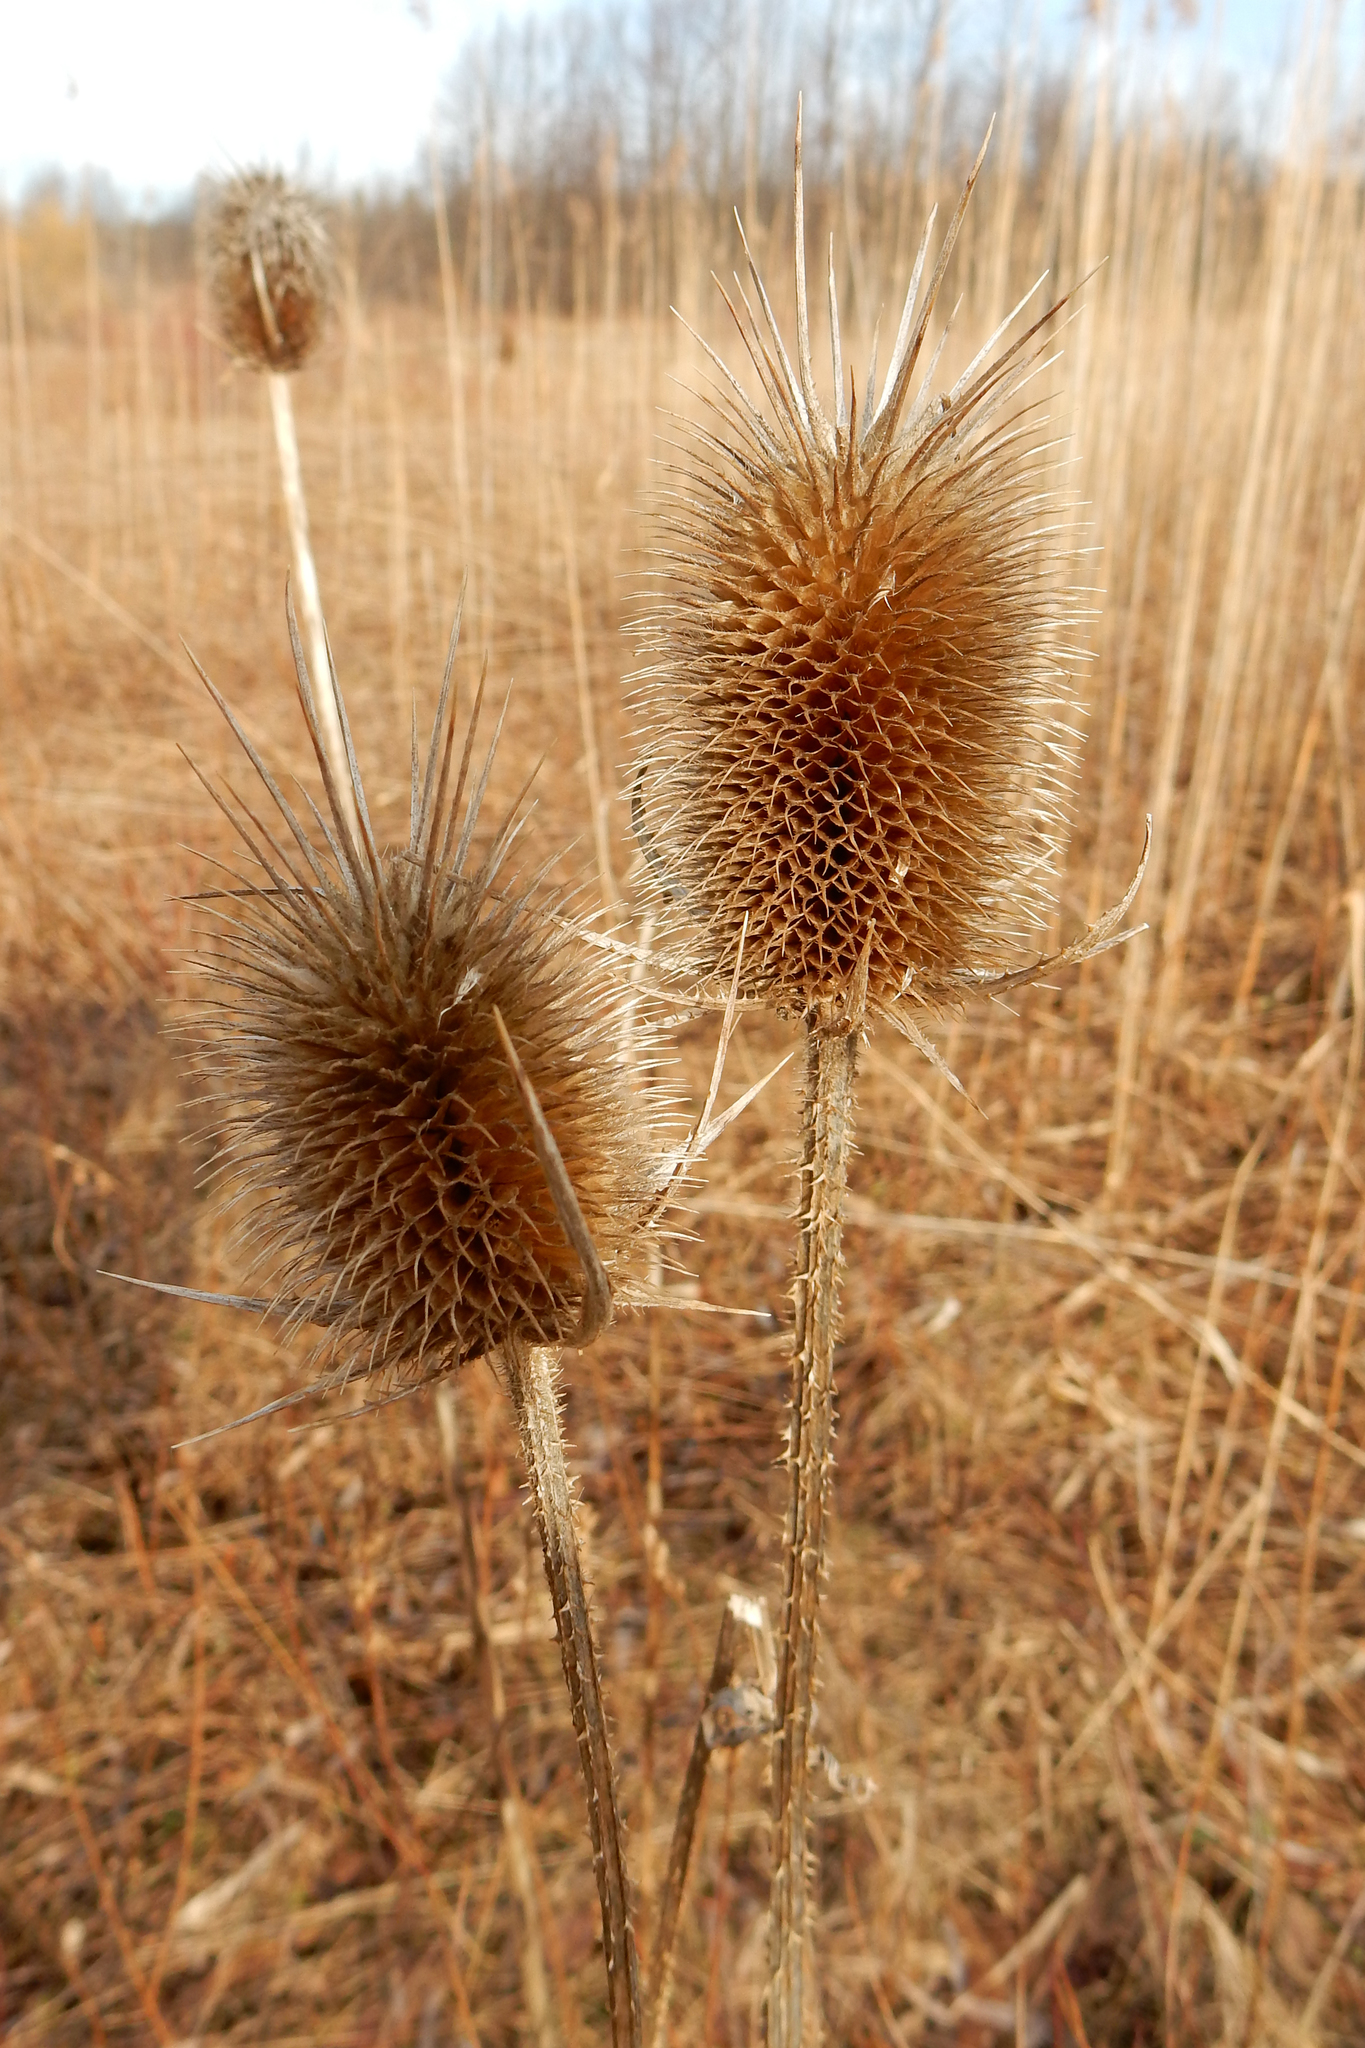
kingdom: Plantae
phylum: Tracheophyta
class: Magnoliopsida
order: Dipsacales
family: Caprifoliaceae
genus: Dipsacus
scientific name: Dipsacus laciniatus
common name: Cut-leaved teasel
